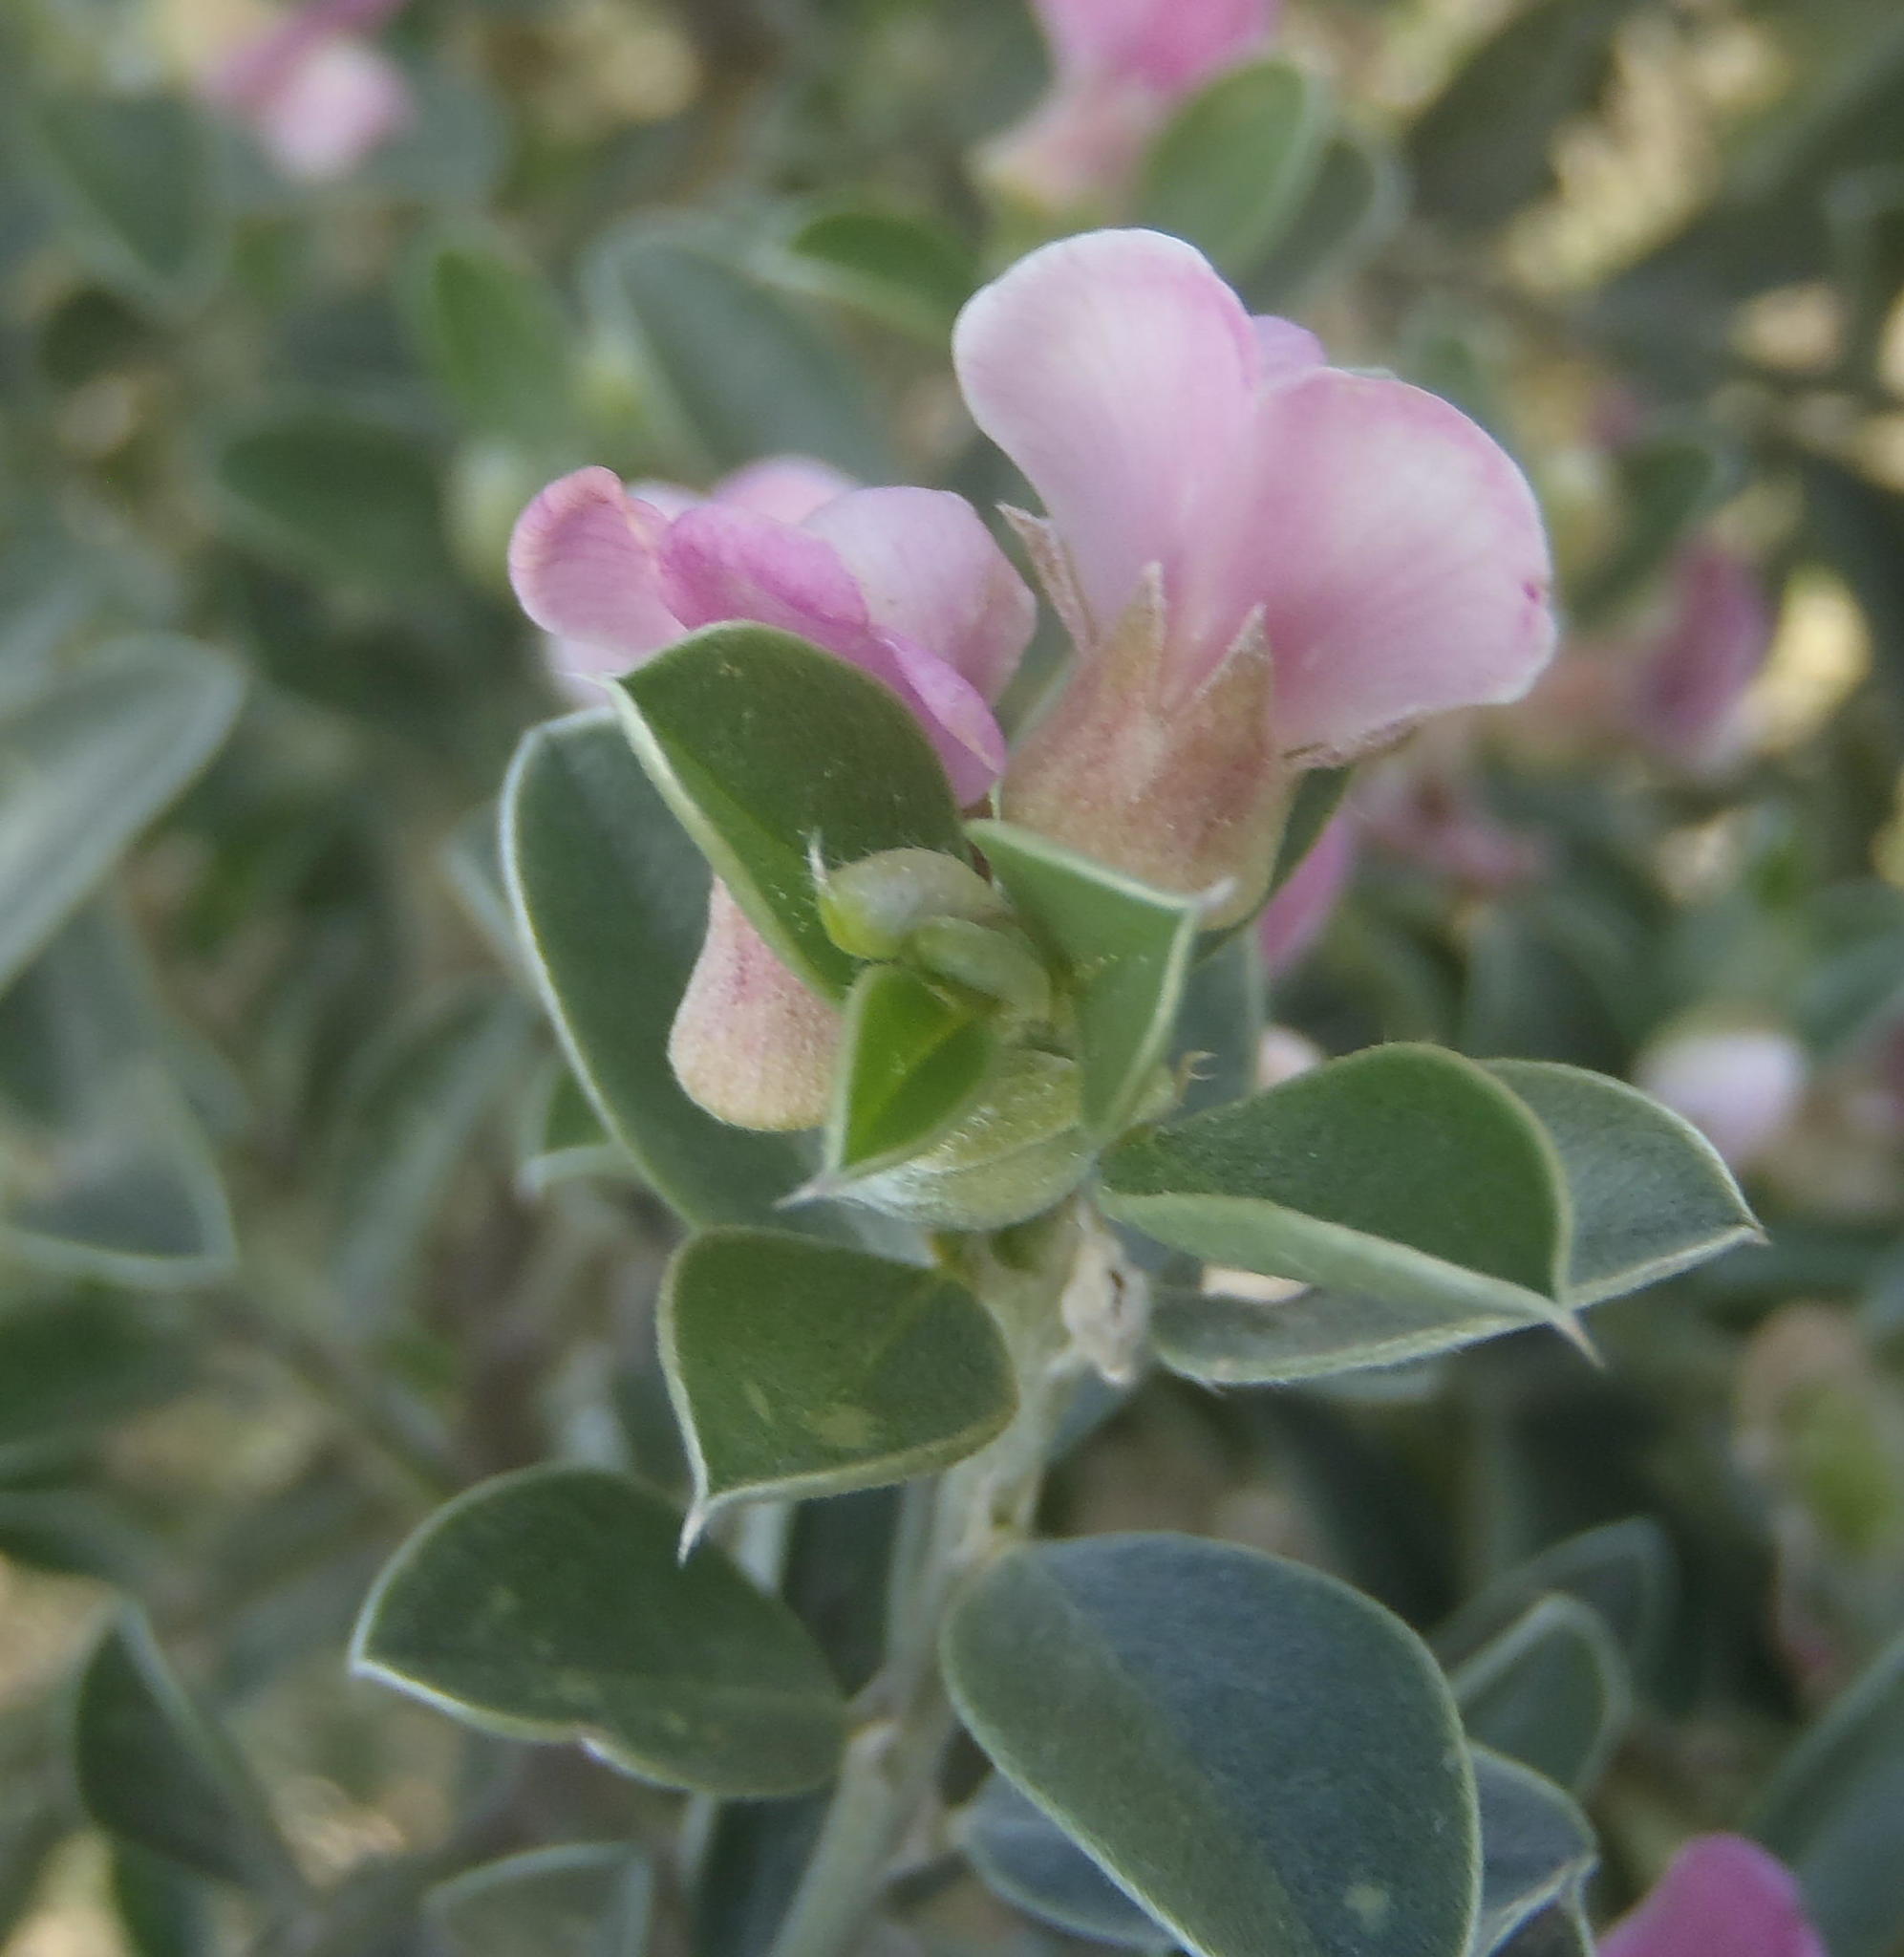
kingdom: Plantae
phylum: Tracheophyta
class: Magnoliopsida
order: Fabales
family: Fabaceae
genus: Podalyria
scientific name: Podalyria myrtillifolia
